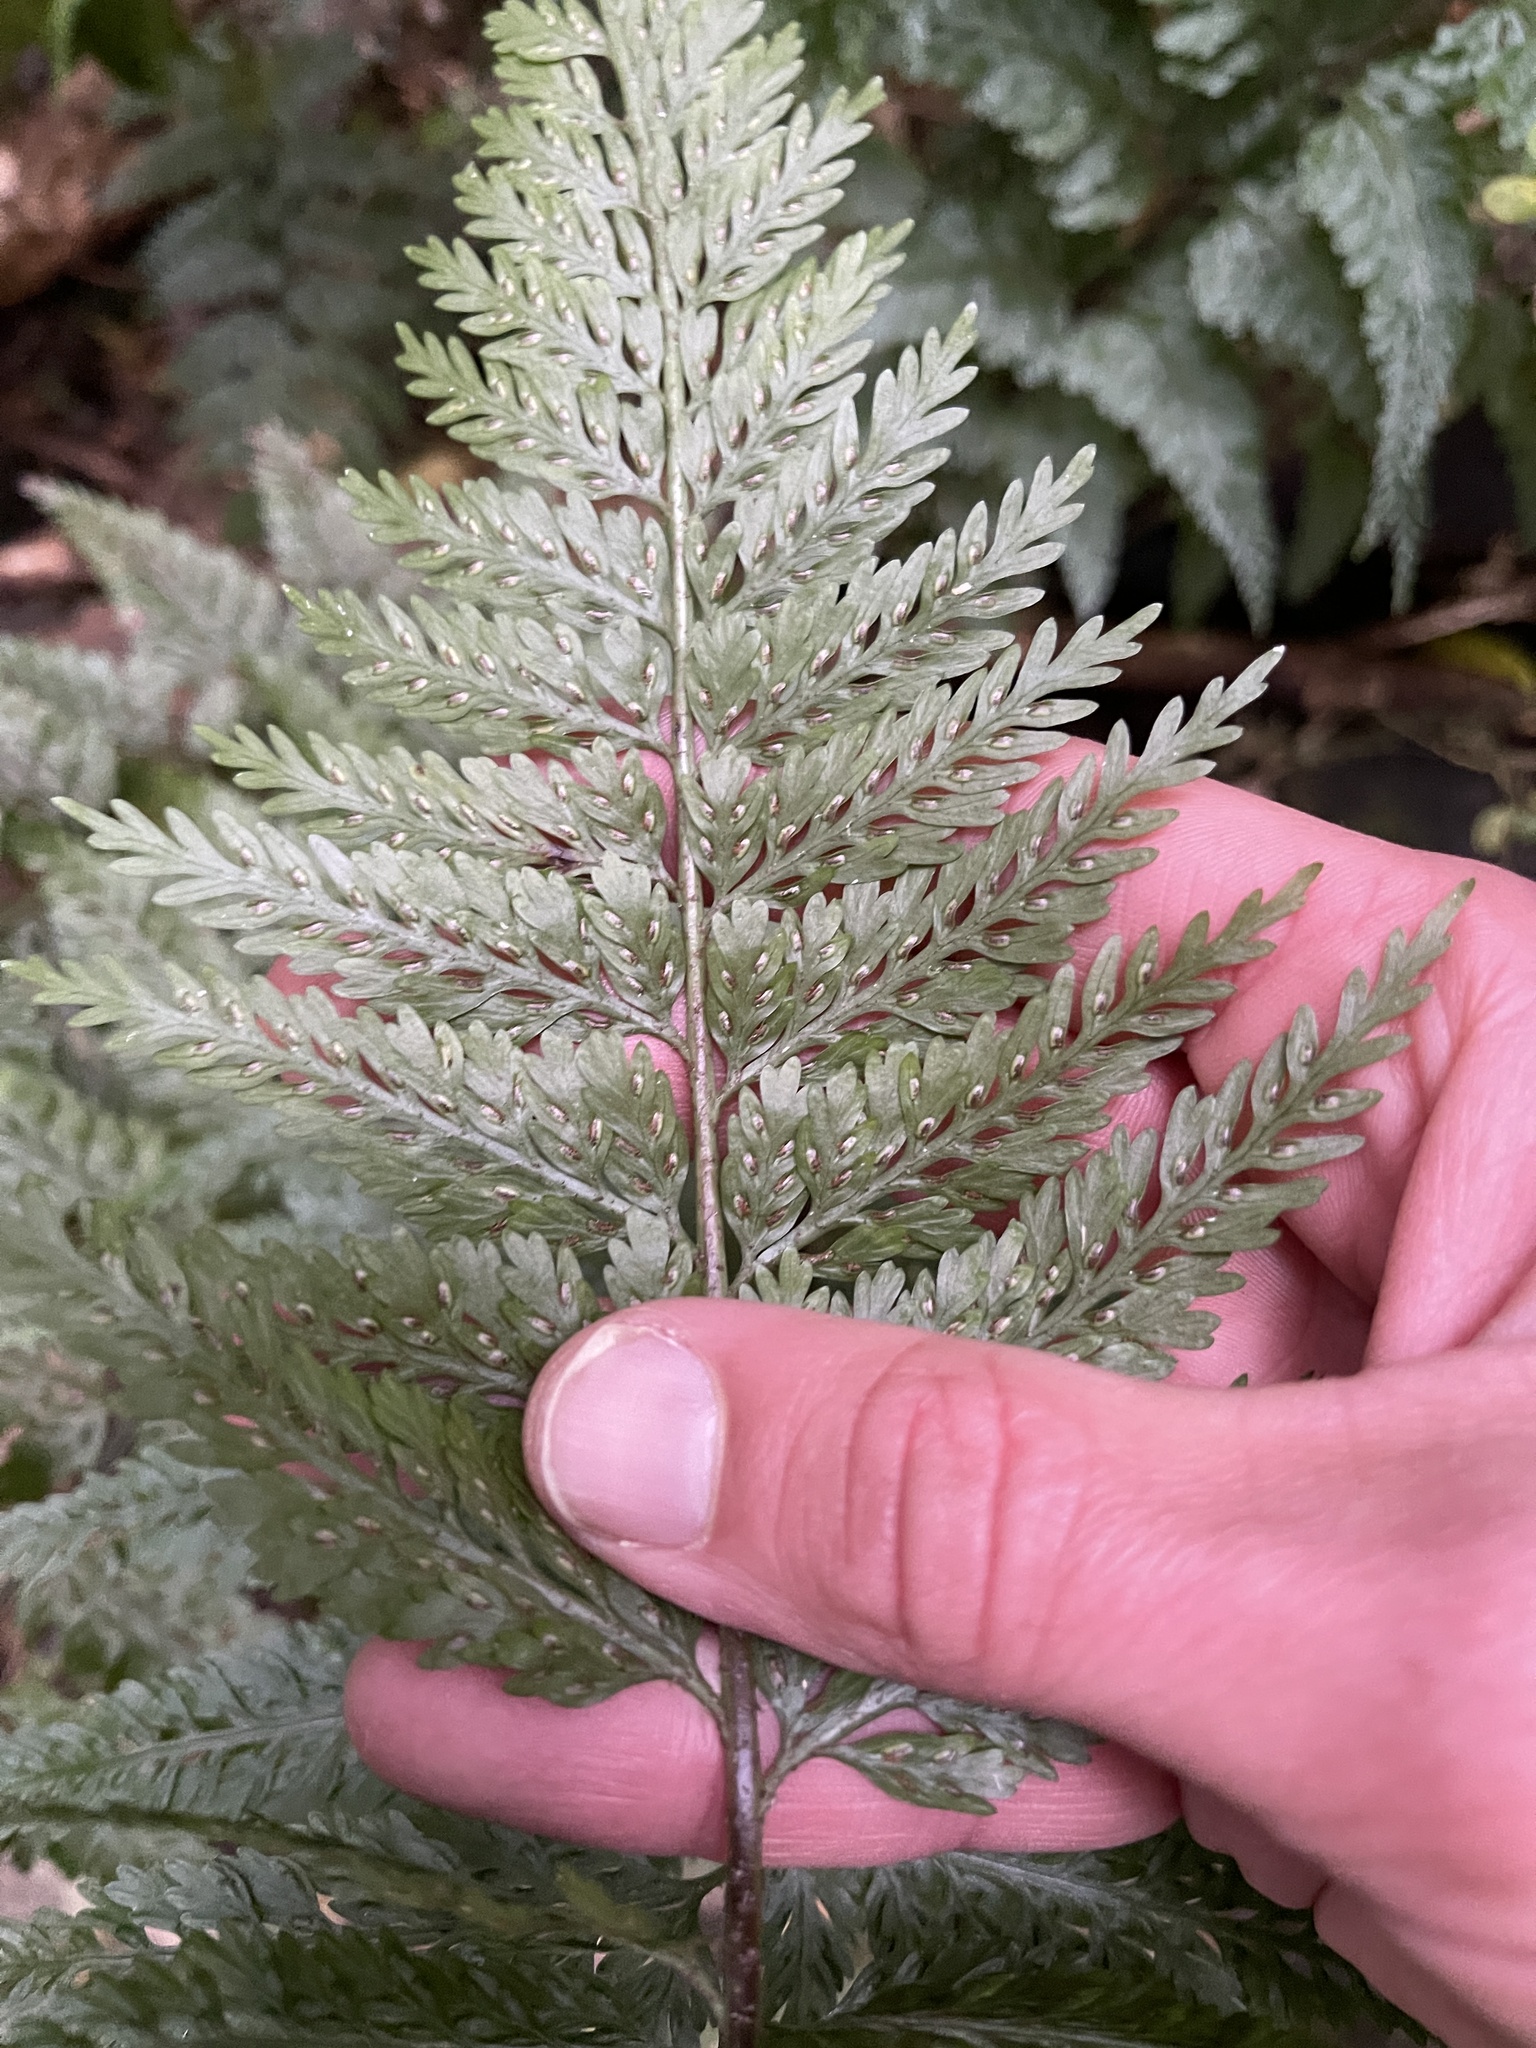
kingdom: Plantae
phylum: Tracheophyta
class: Polypodiopsida
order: Polypodiales
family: Aspleniaceae
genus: Asplenium
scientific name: Asplenium
